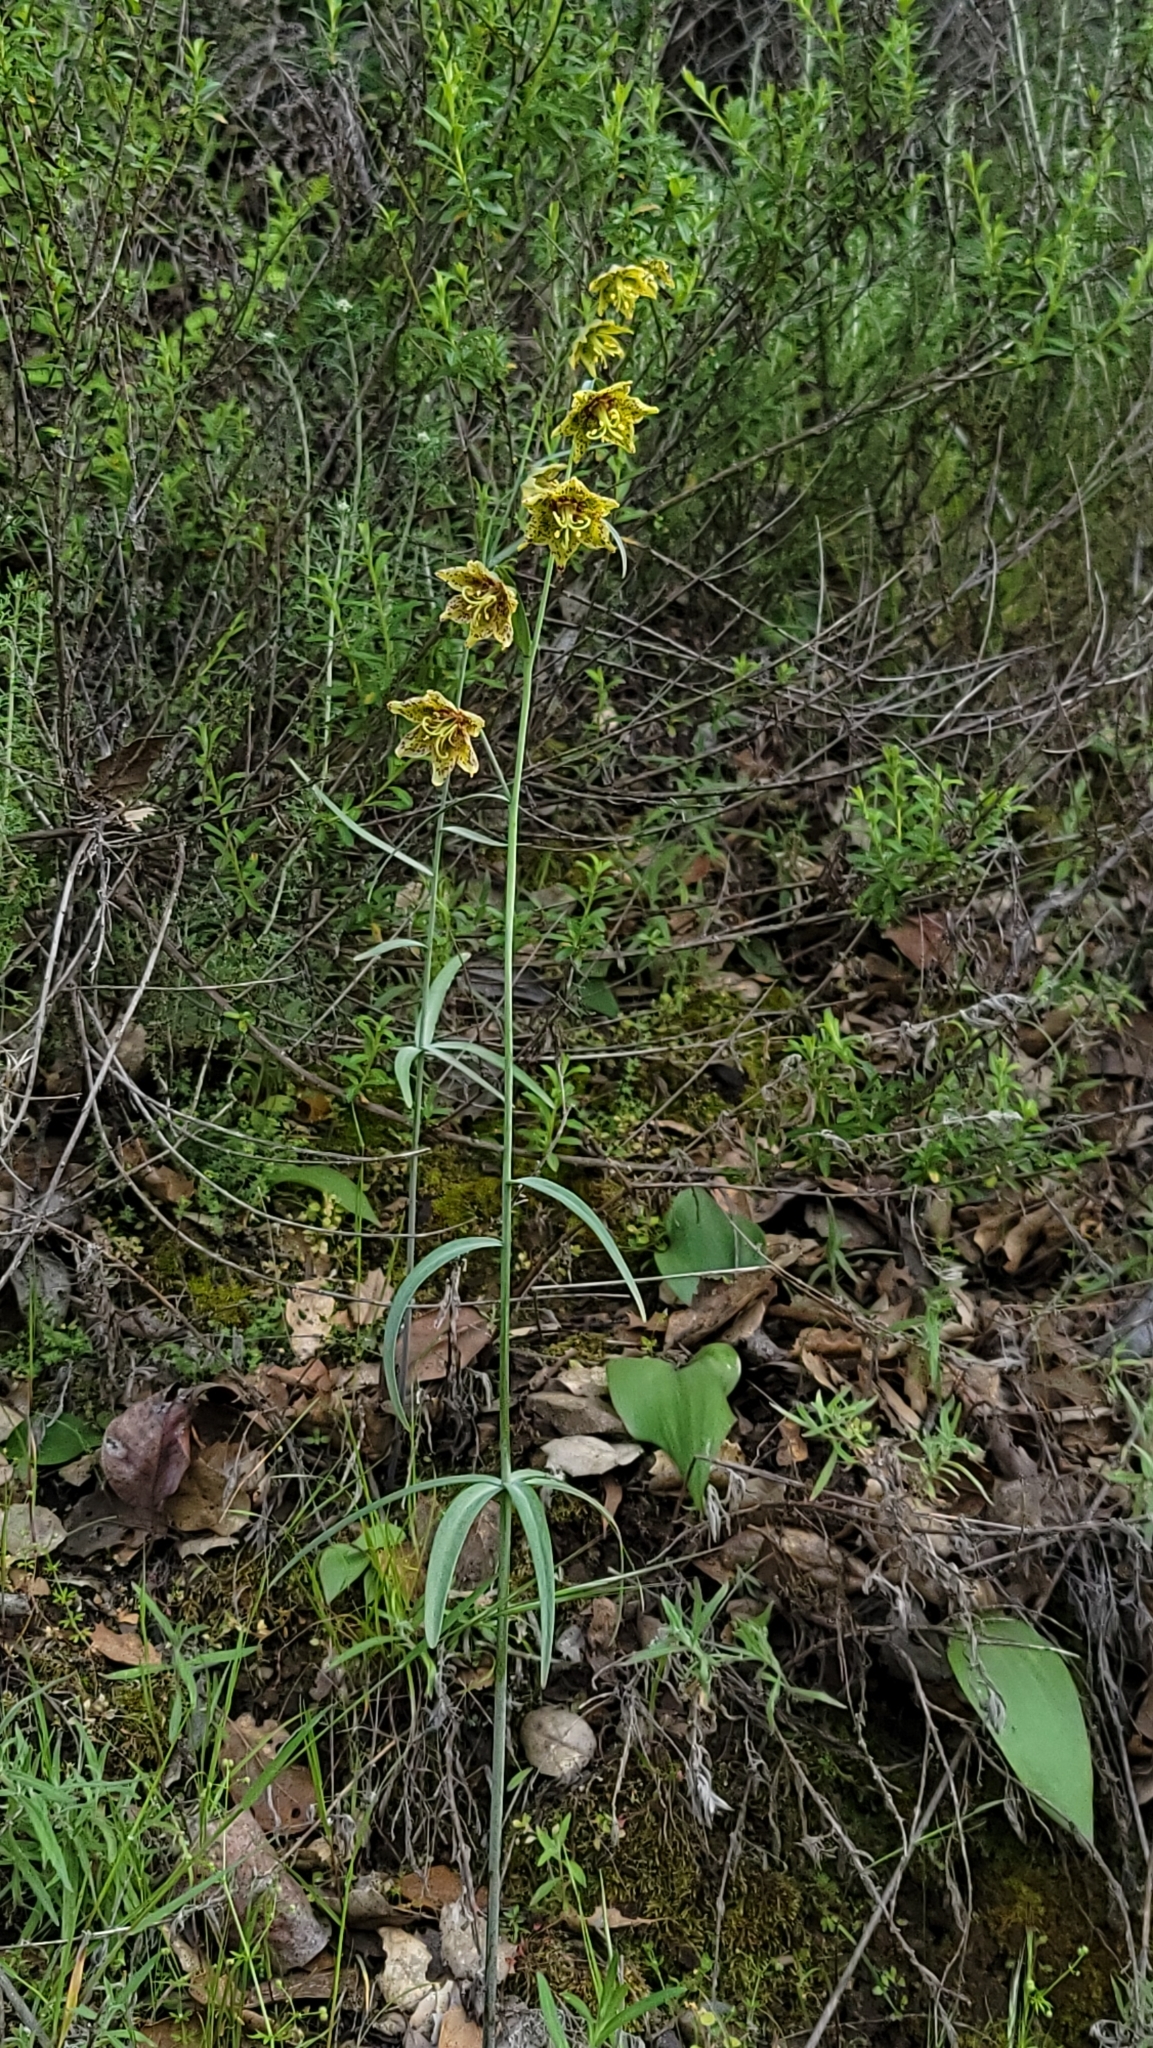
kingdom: Plantae
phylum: Tracheophyta
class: Liliopsida
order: Liliales
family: Liliaceae
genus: Fritillaria
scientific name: Fritillaria ojaiensis
